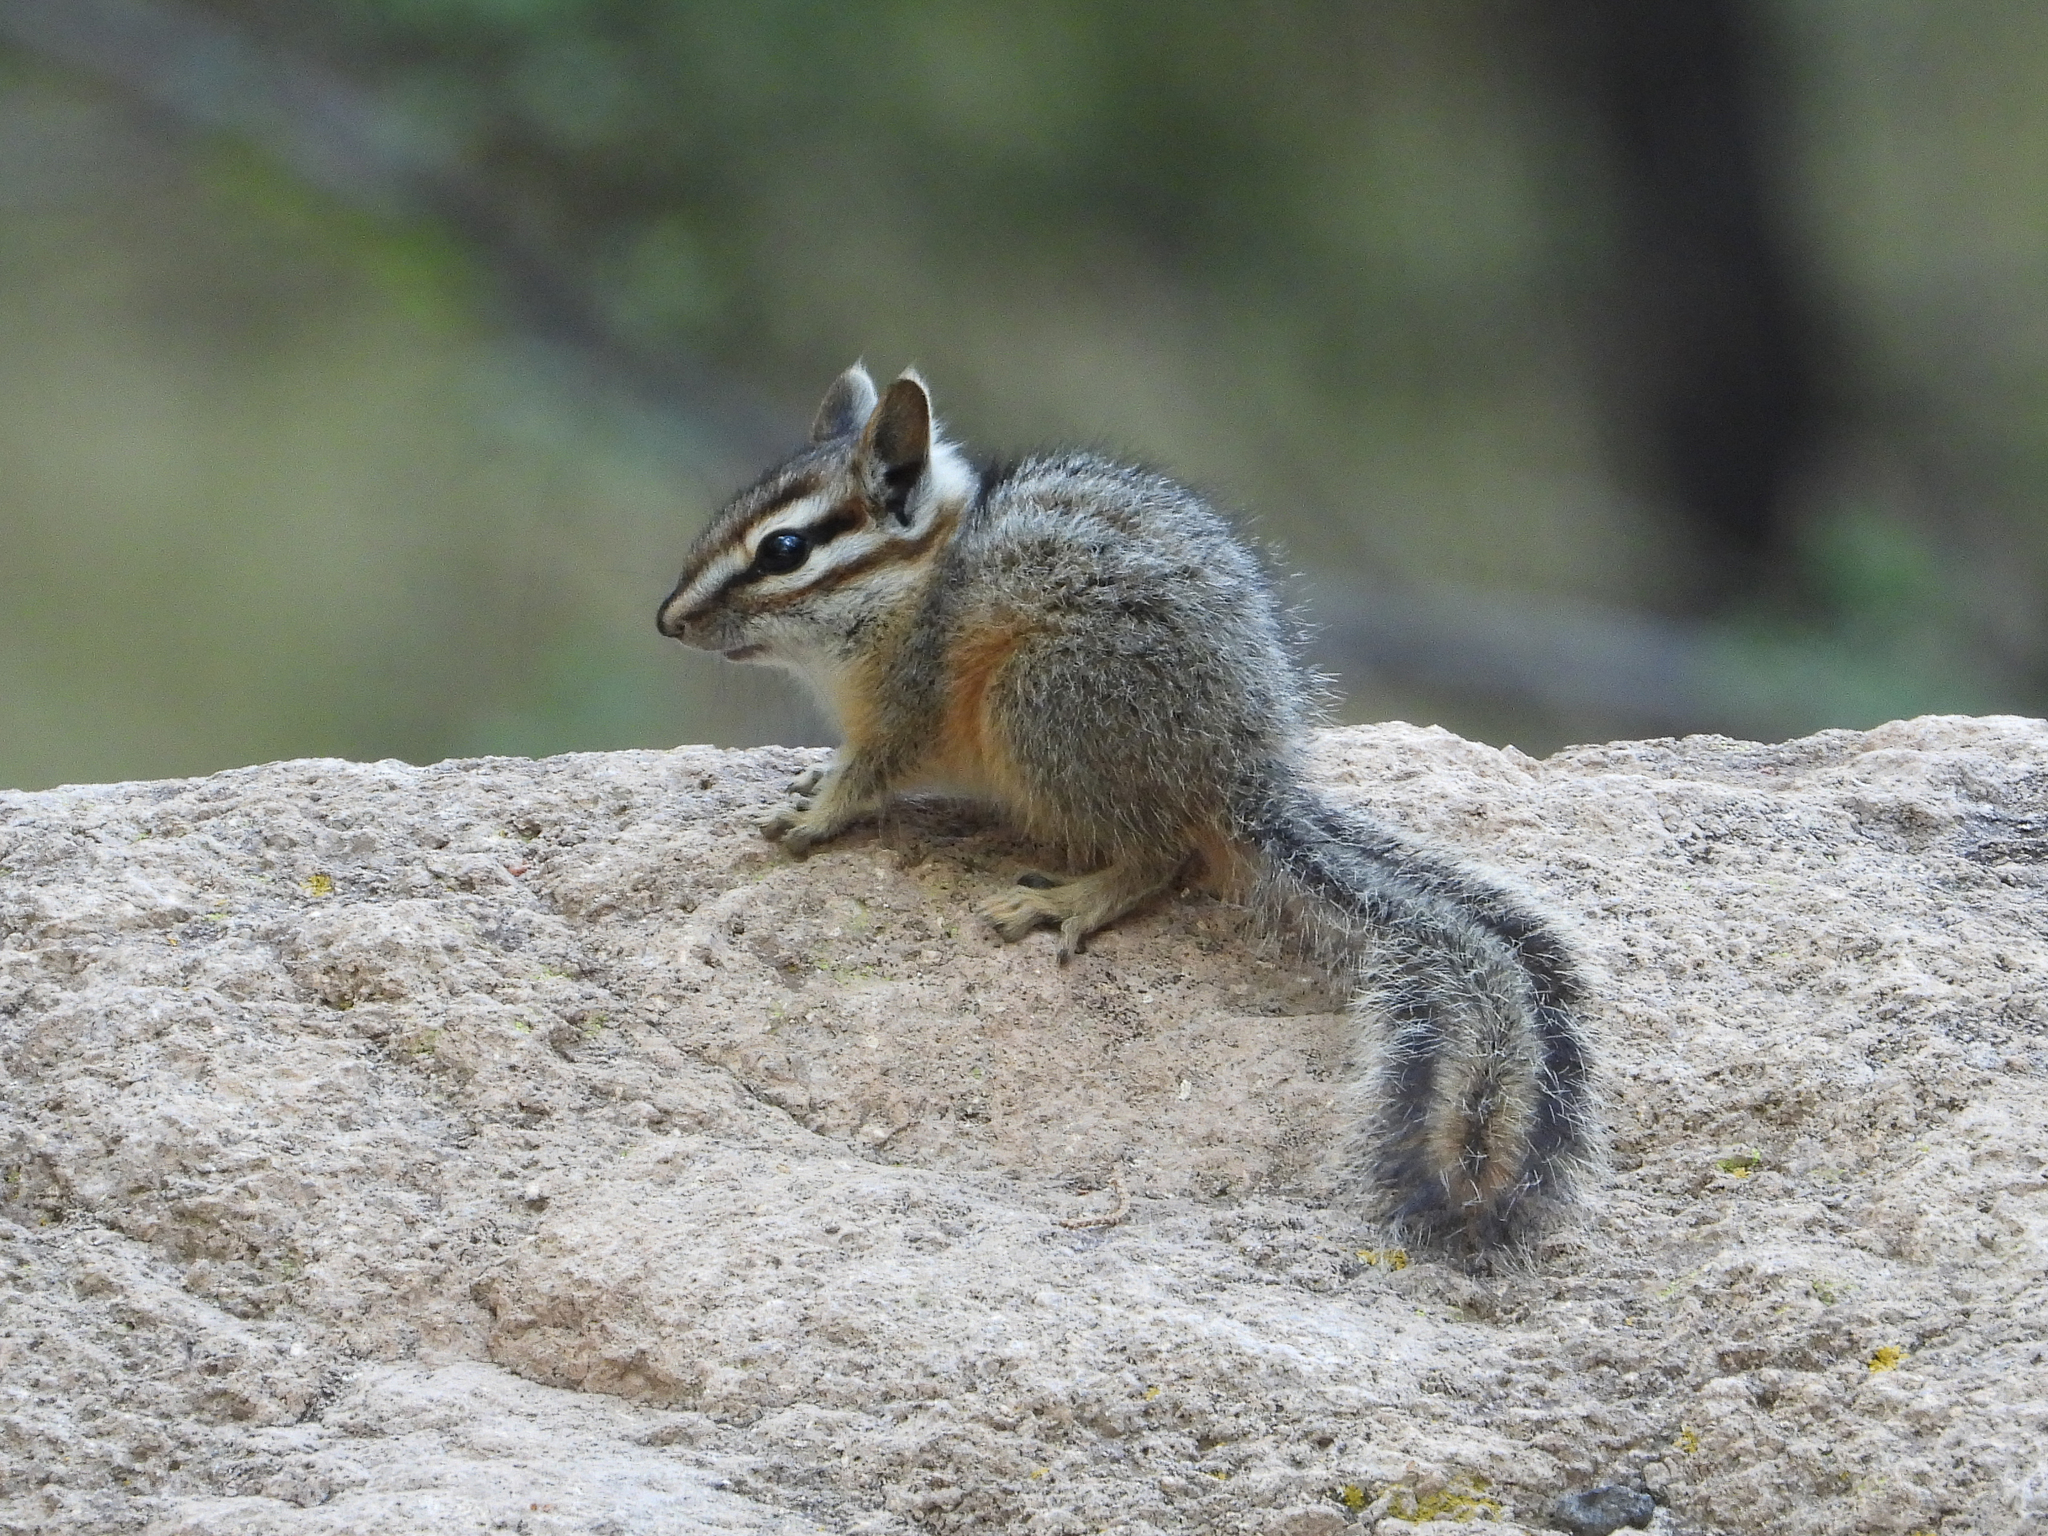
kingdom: Animalia
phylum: Chordata
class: Mammalia
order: Rodentia
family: Sciuridae
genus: Tamias
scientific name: Tamias dorsalis
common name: Cliff chipmunk
